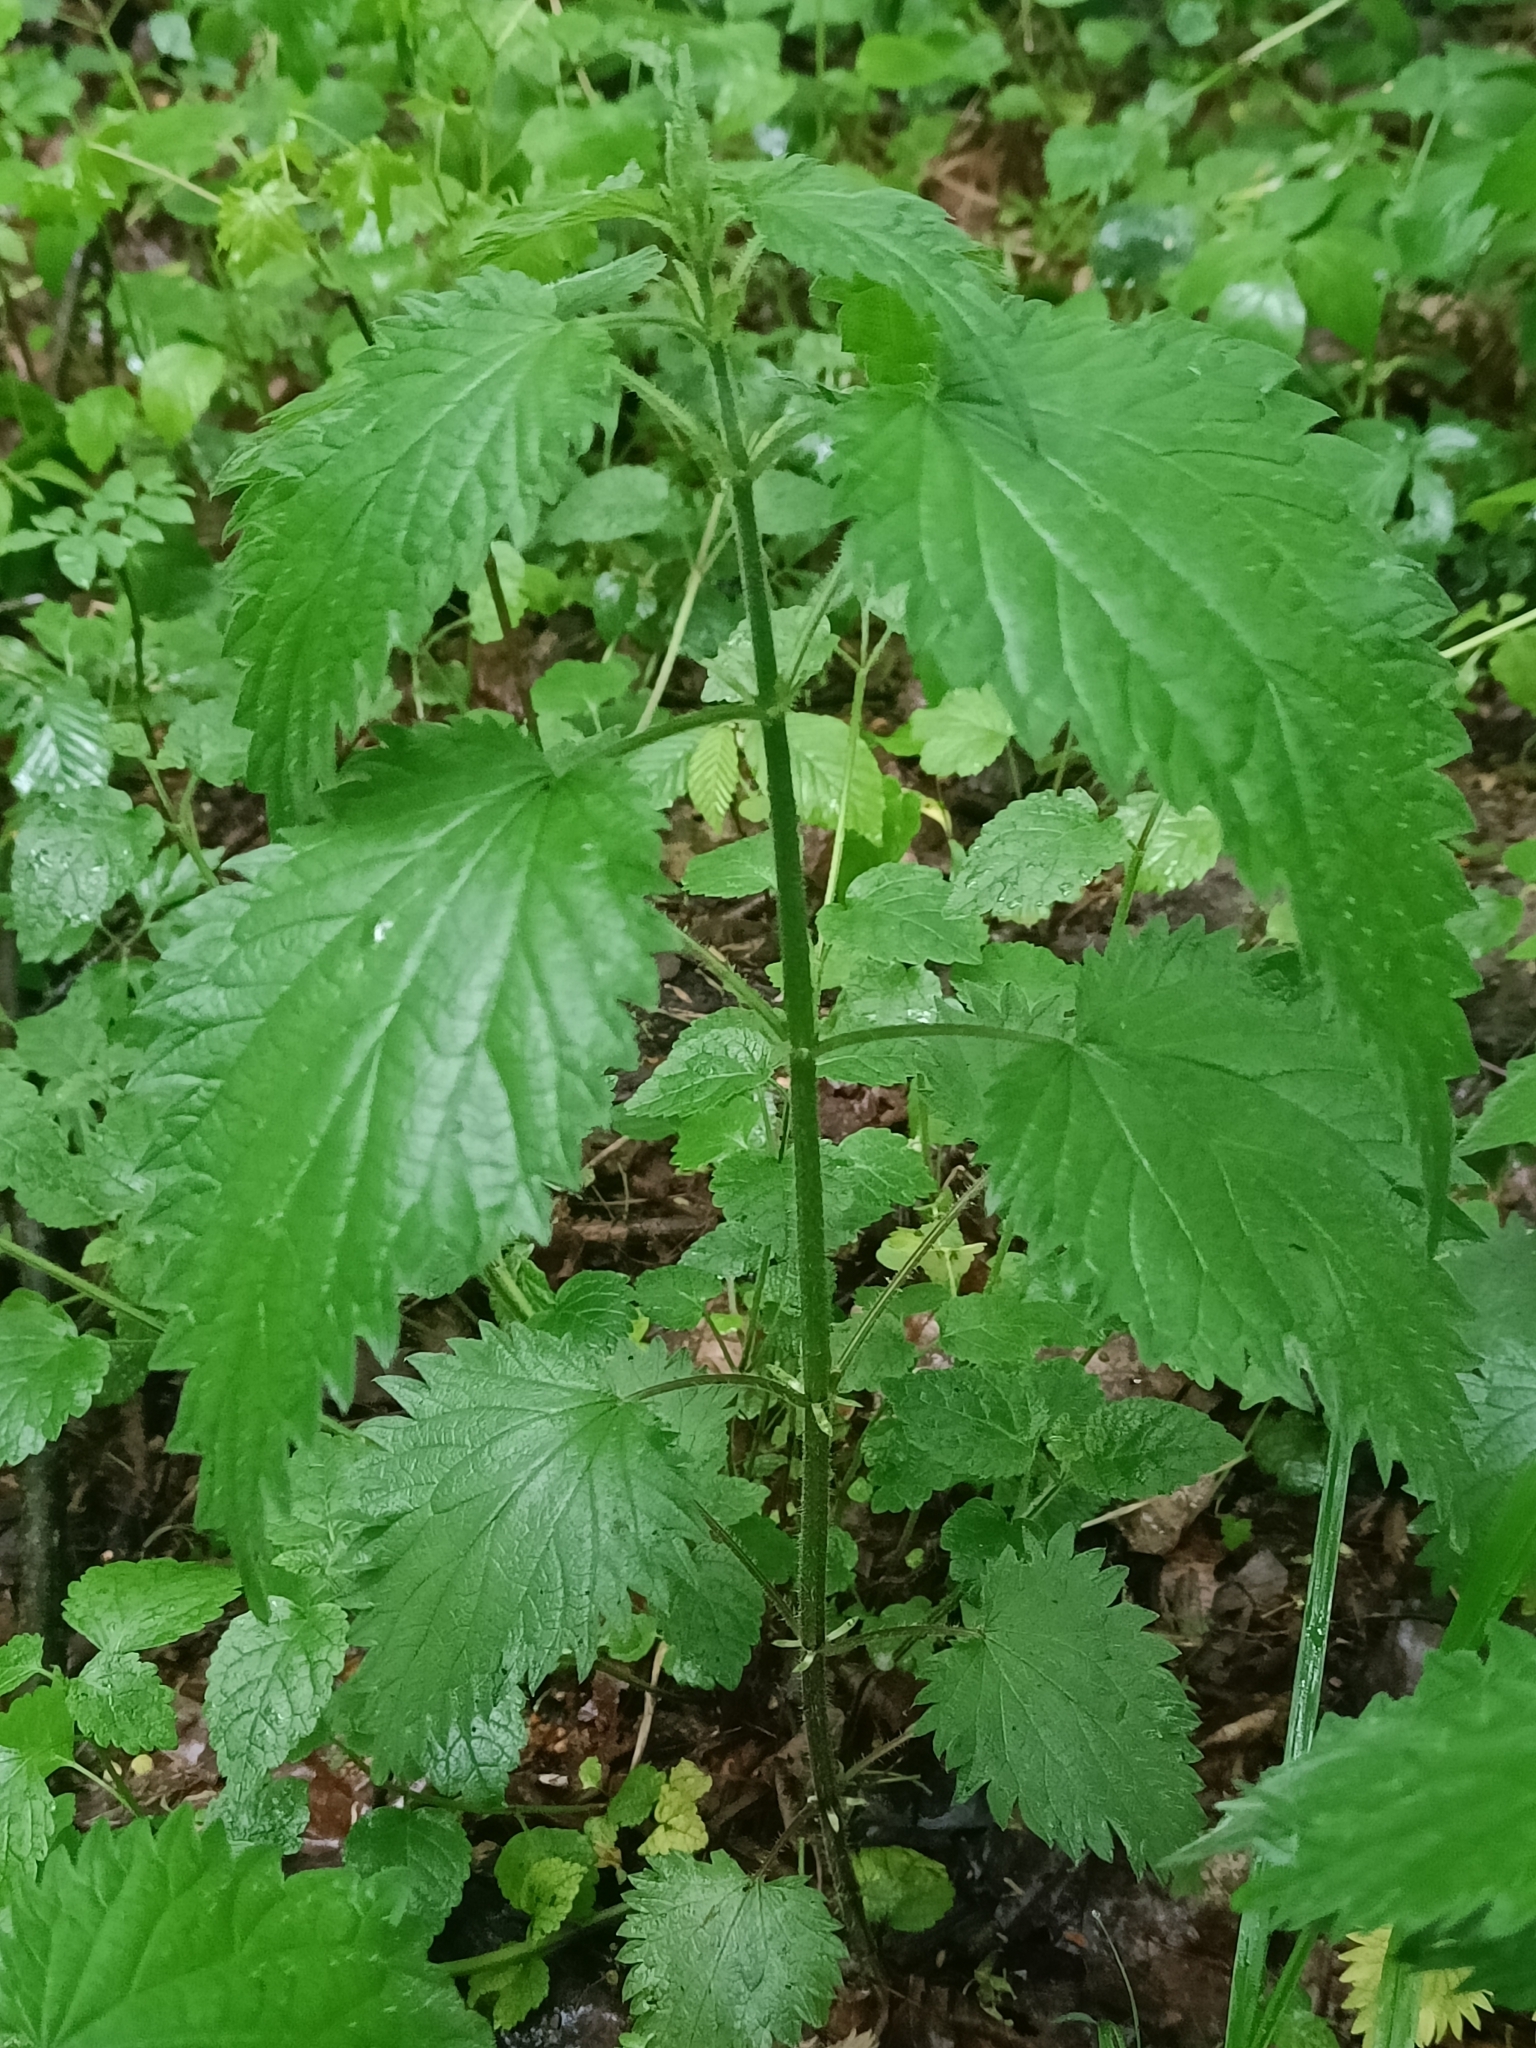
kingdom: Plantae
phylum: Tracheophyta
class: Magnoliopsida
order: Rosales
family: Urticaceae
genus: Urtica
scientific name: Urtica dioica
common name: Common nettle
